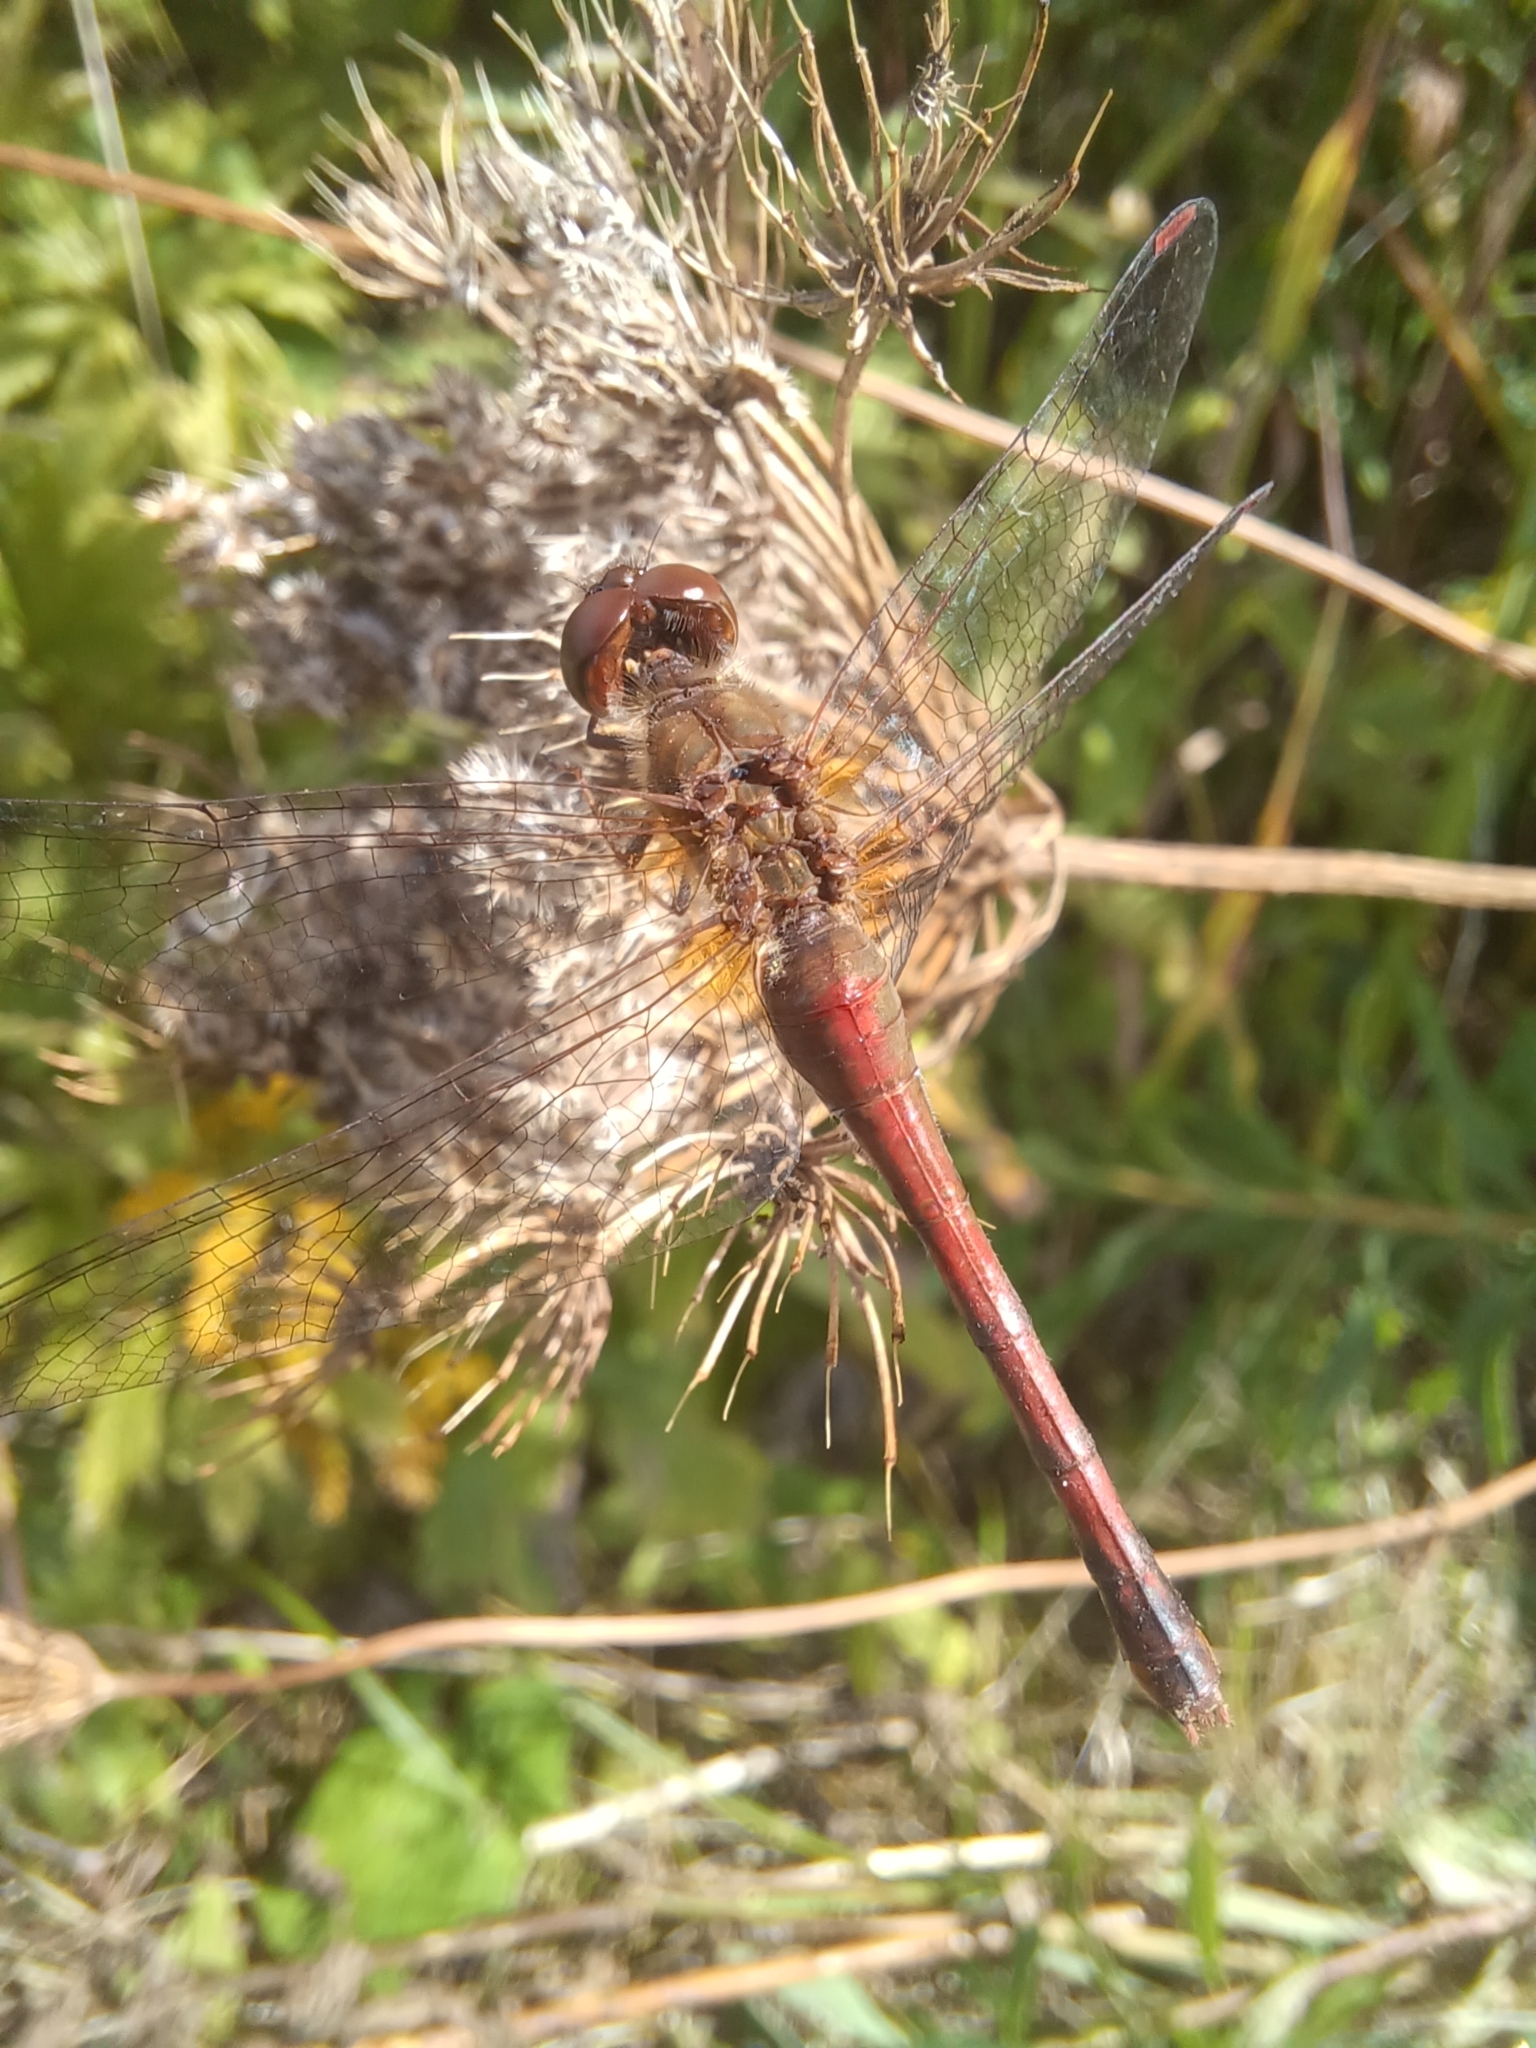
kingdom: Animalia
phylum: Arthropoda
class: Insecta
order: Odonata
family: Libellulidae
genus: Sympetrum
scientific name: Sympetrum vicinum
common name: Autumn meadowhawk
